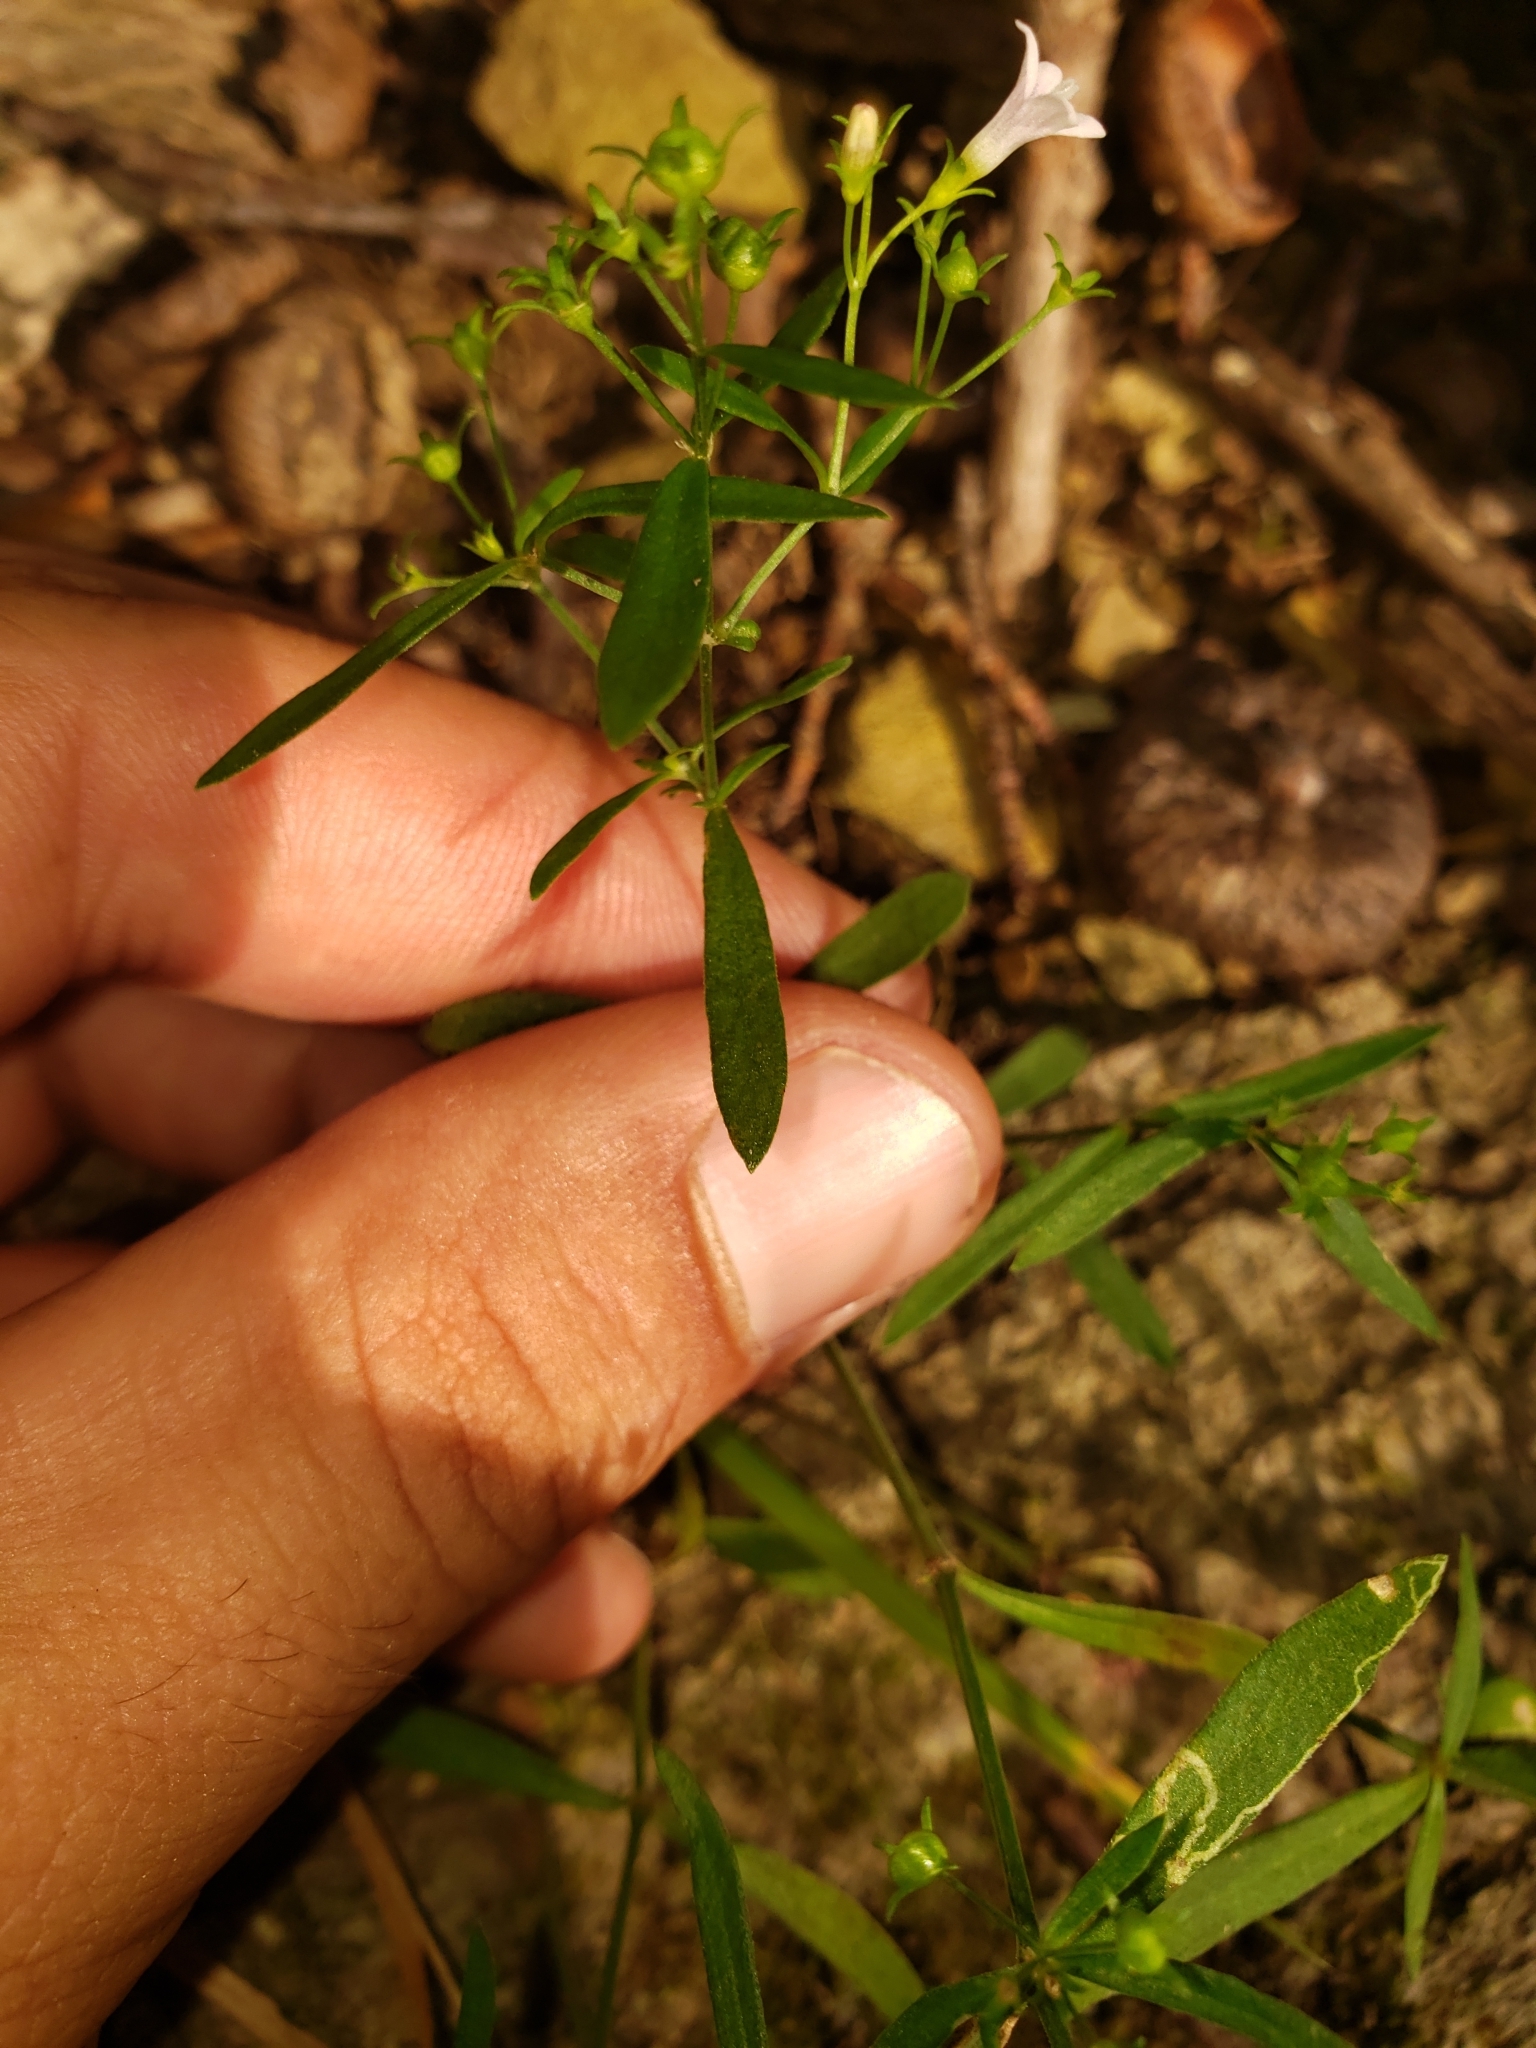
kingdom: Plantae
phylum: Tracheophyta
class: Magnoliopsida
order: Gentianales
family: Rubiaceae
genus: Houstonia
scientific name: Houstonia longifolia
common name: Long-leaved bluets
